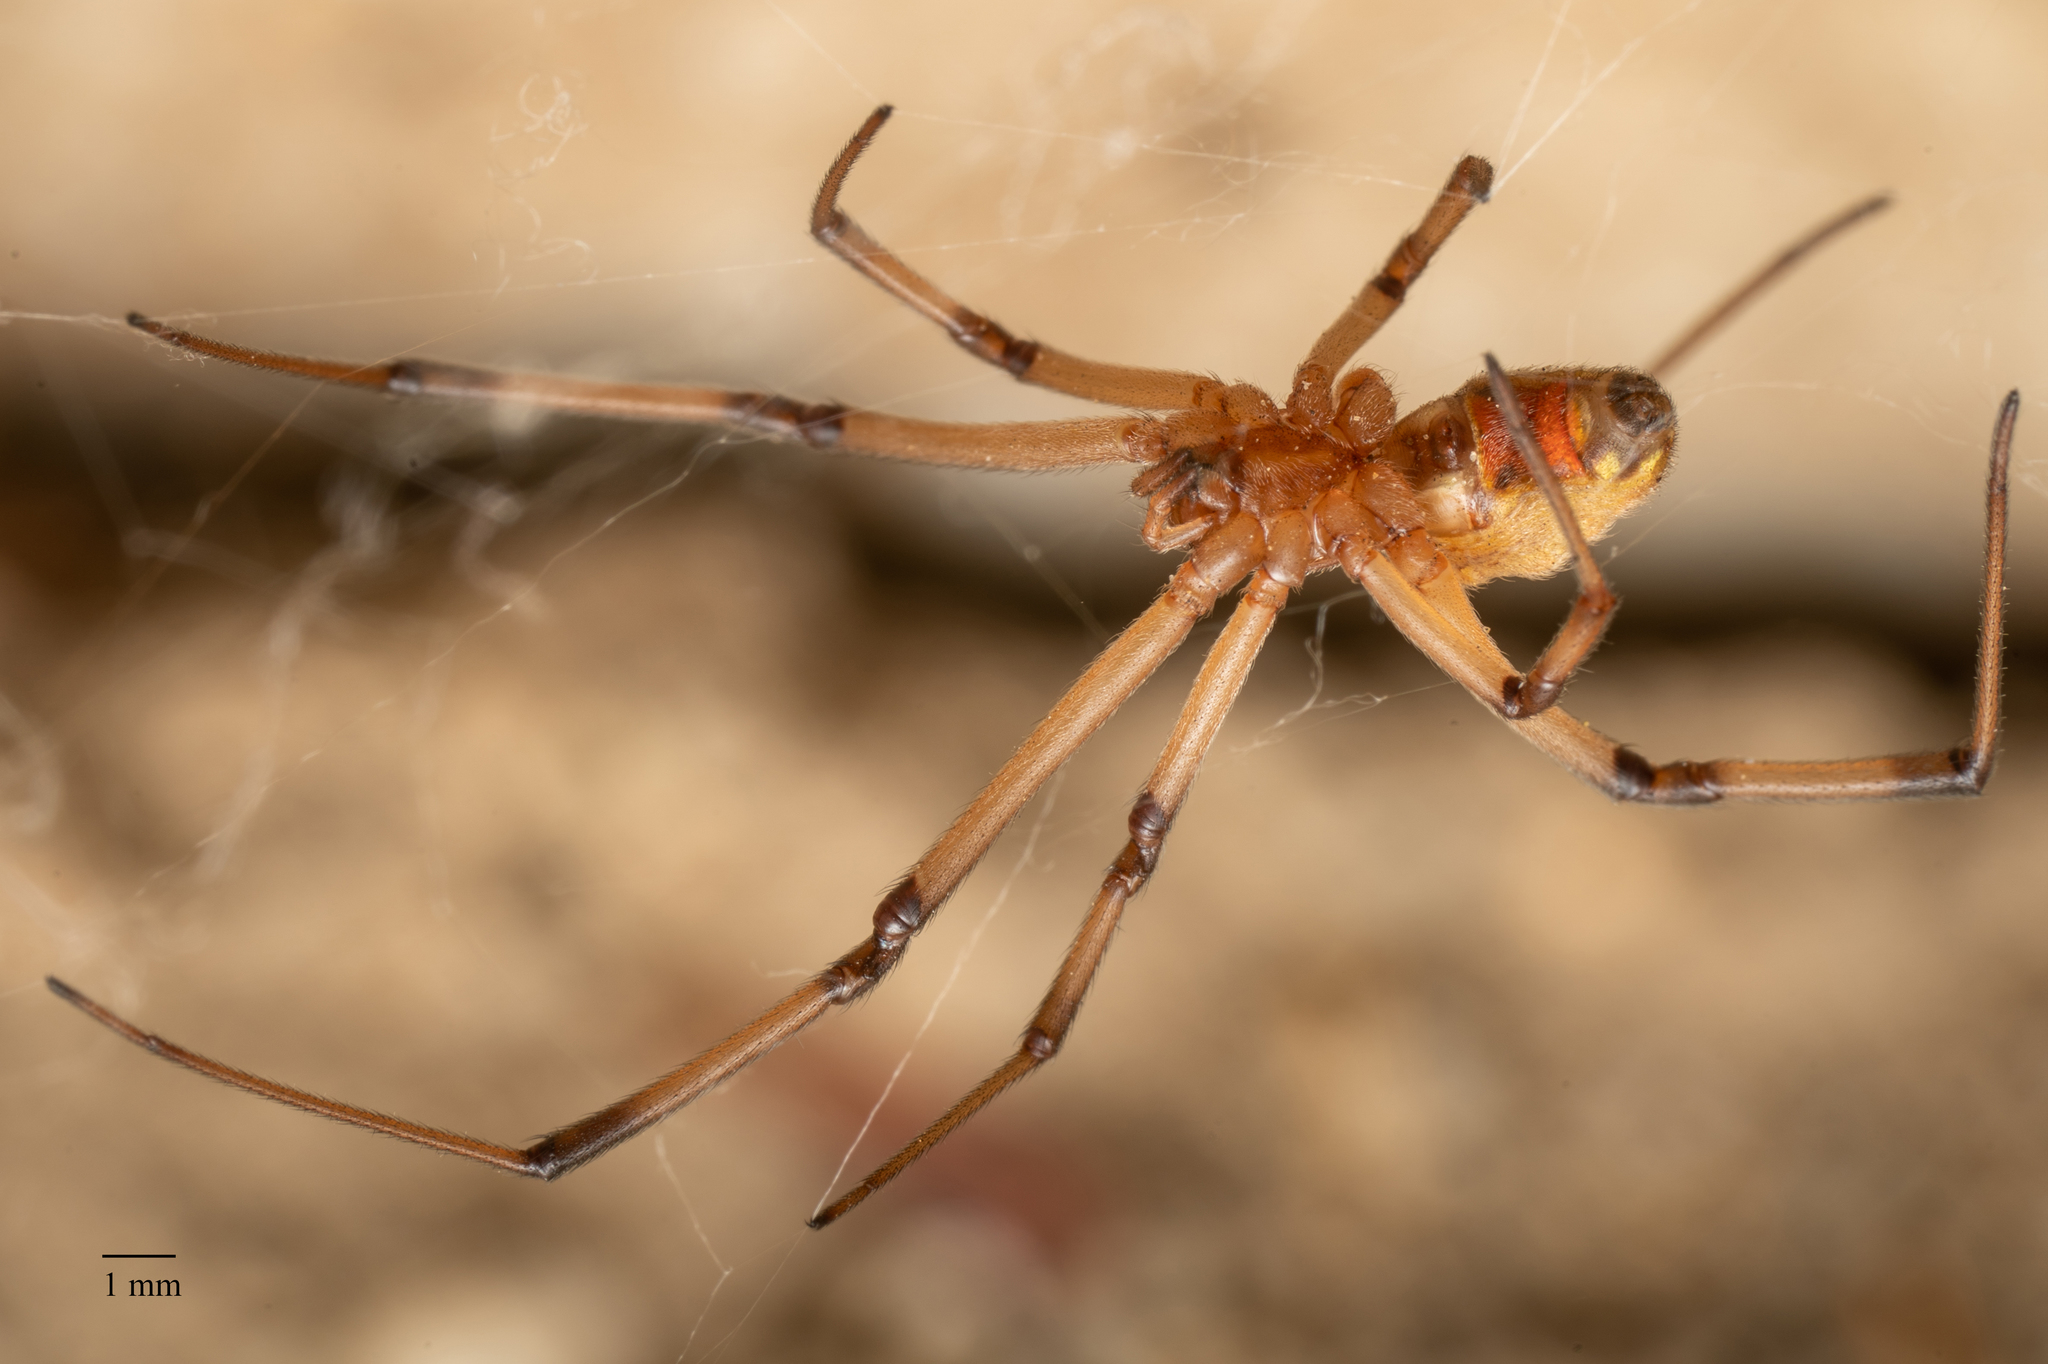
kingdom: Animalia
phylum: Arthropoda
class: Arachnida
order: Araneae
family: Theridiidae
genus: Latrodectus
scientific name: Latrodectus geometricus
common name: Brown widow spider
